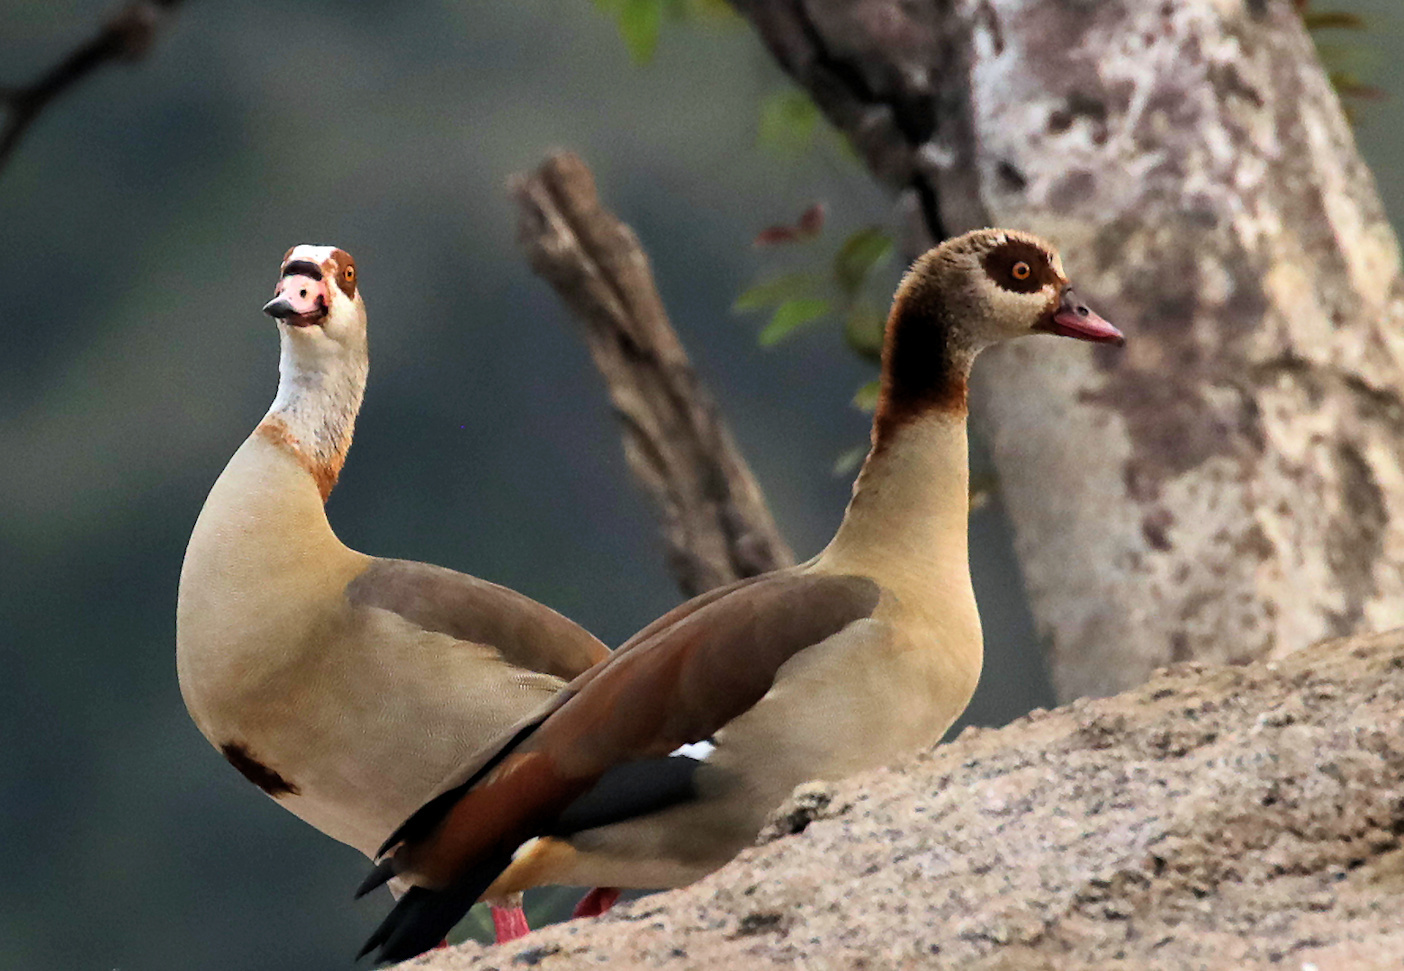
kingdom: Animalia
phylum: Chordata
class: Aves
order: Anseriformes
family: Anatidae
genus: Alopochen
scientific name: Alopochen aegyptiaca
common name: Egyptian goose
